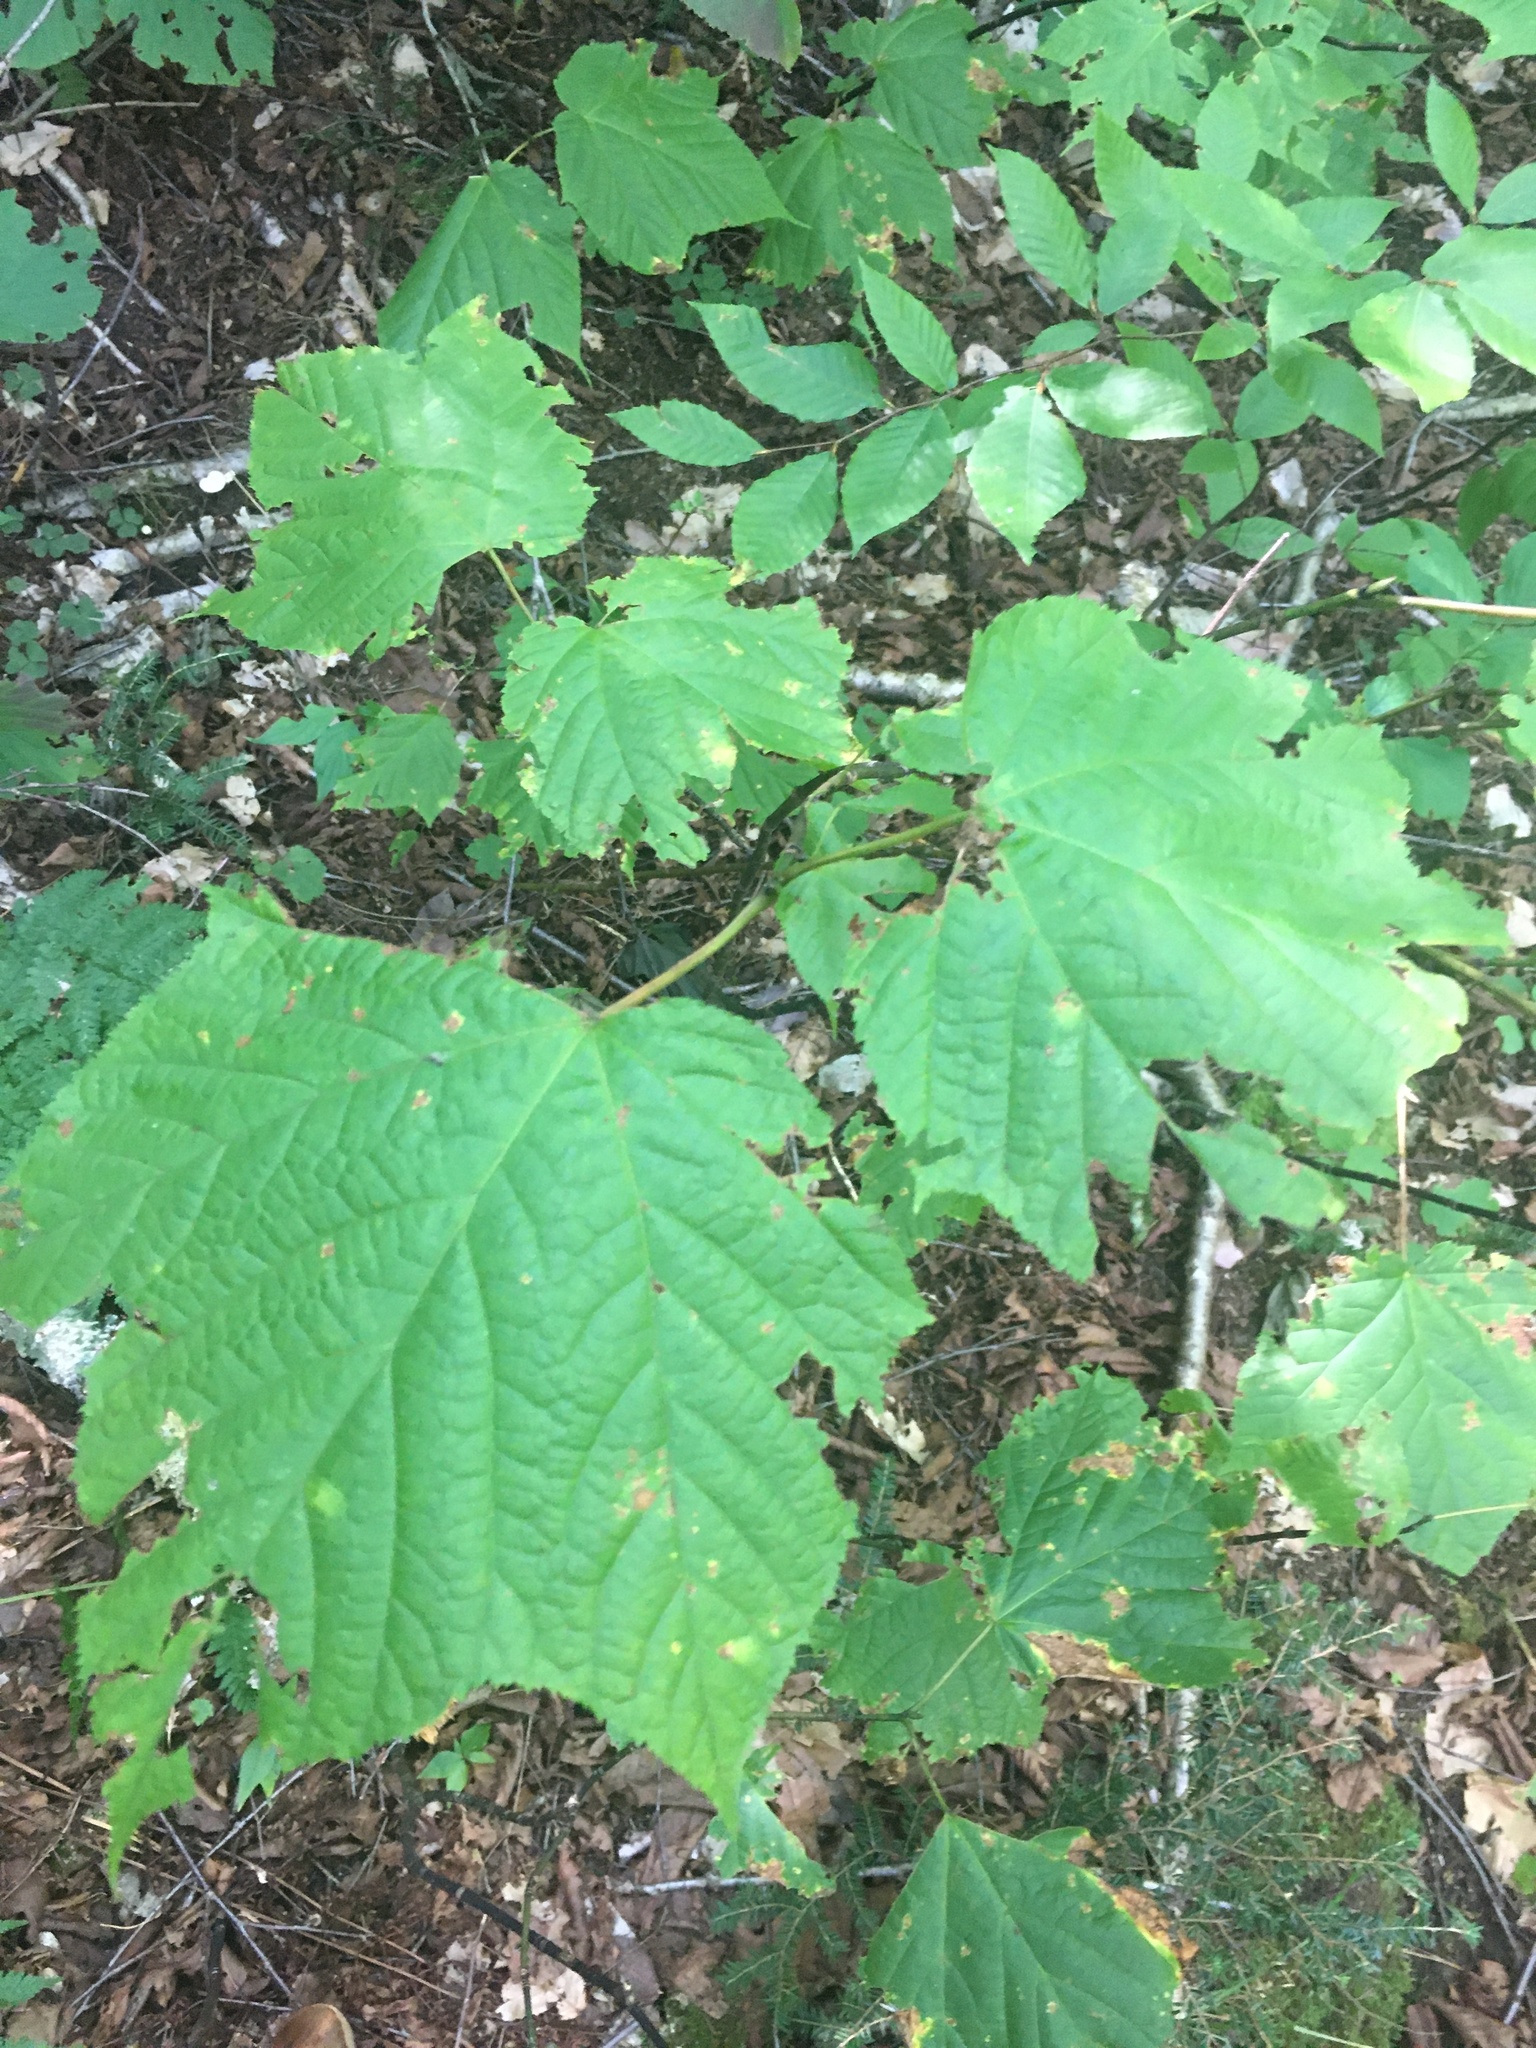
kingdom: Plantae
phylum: Tracheophyta
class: Magnoliopsida
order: Sapindales
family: Sapindaceae
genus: Acer
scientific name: Acer pensylvanicum
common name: Moosewood
